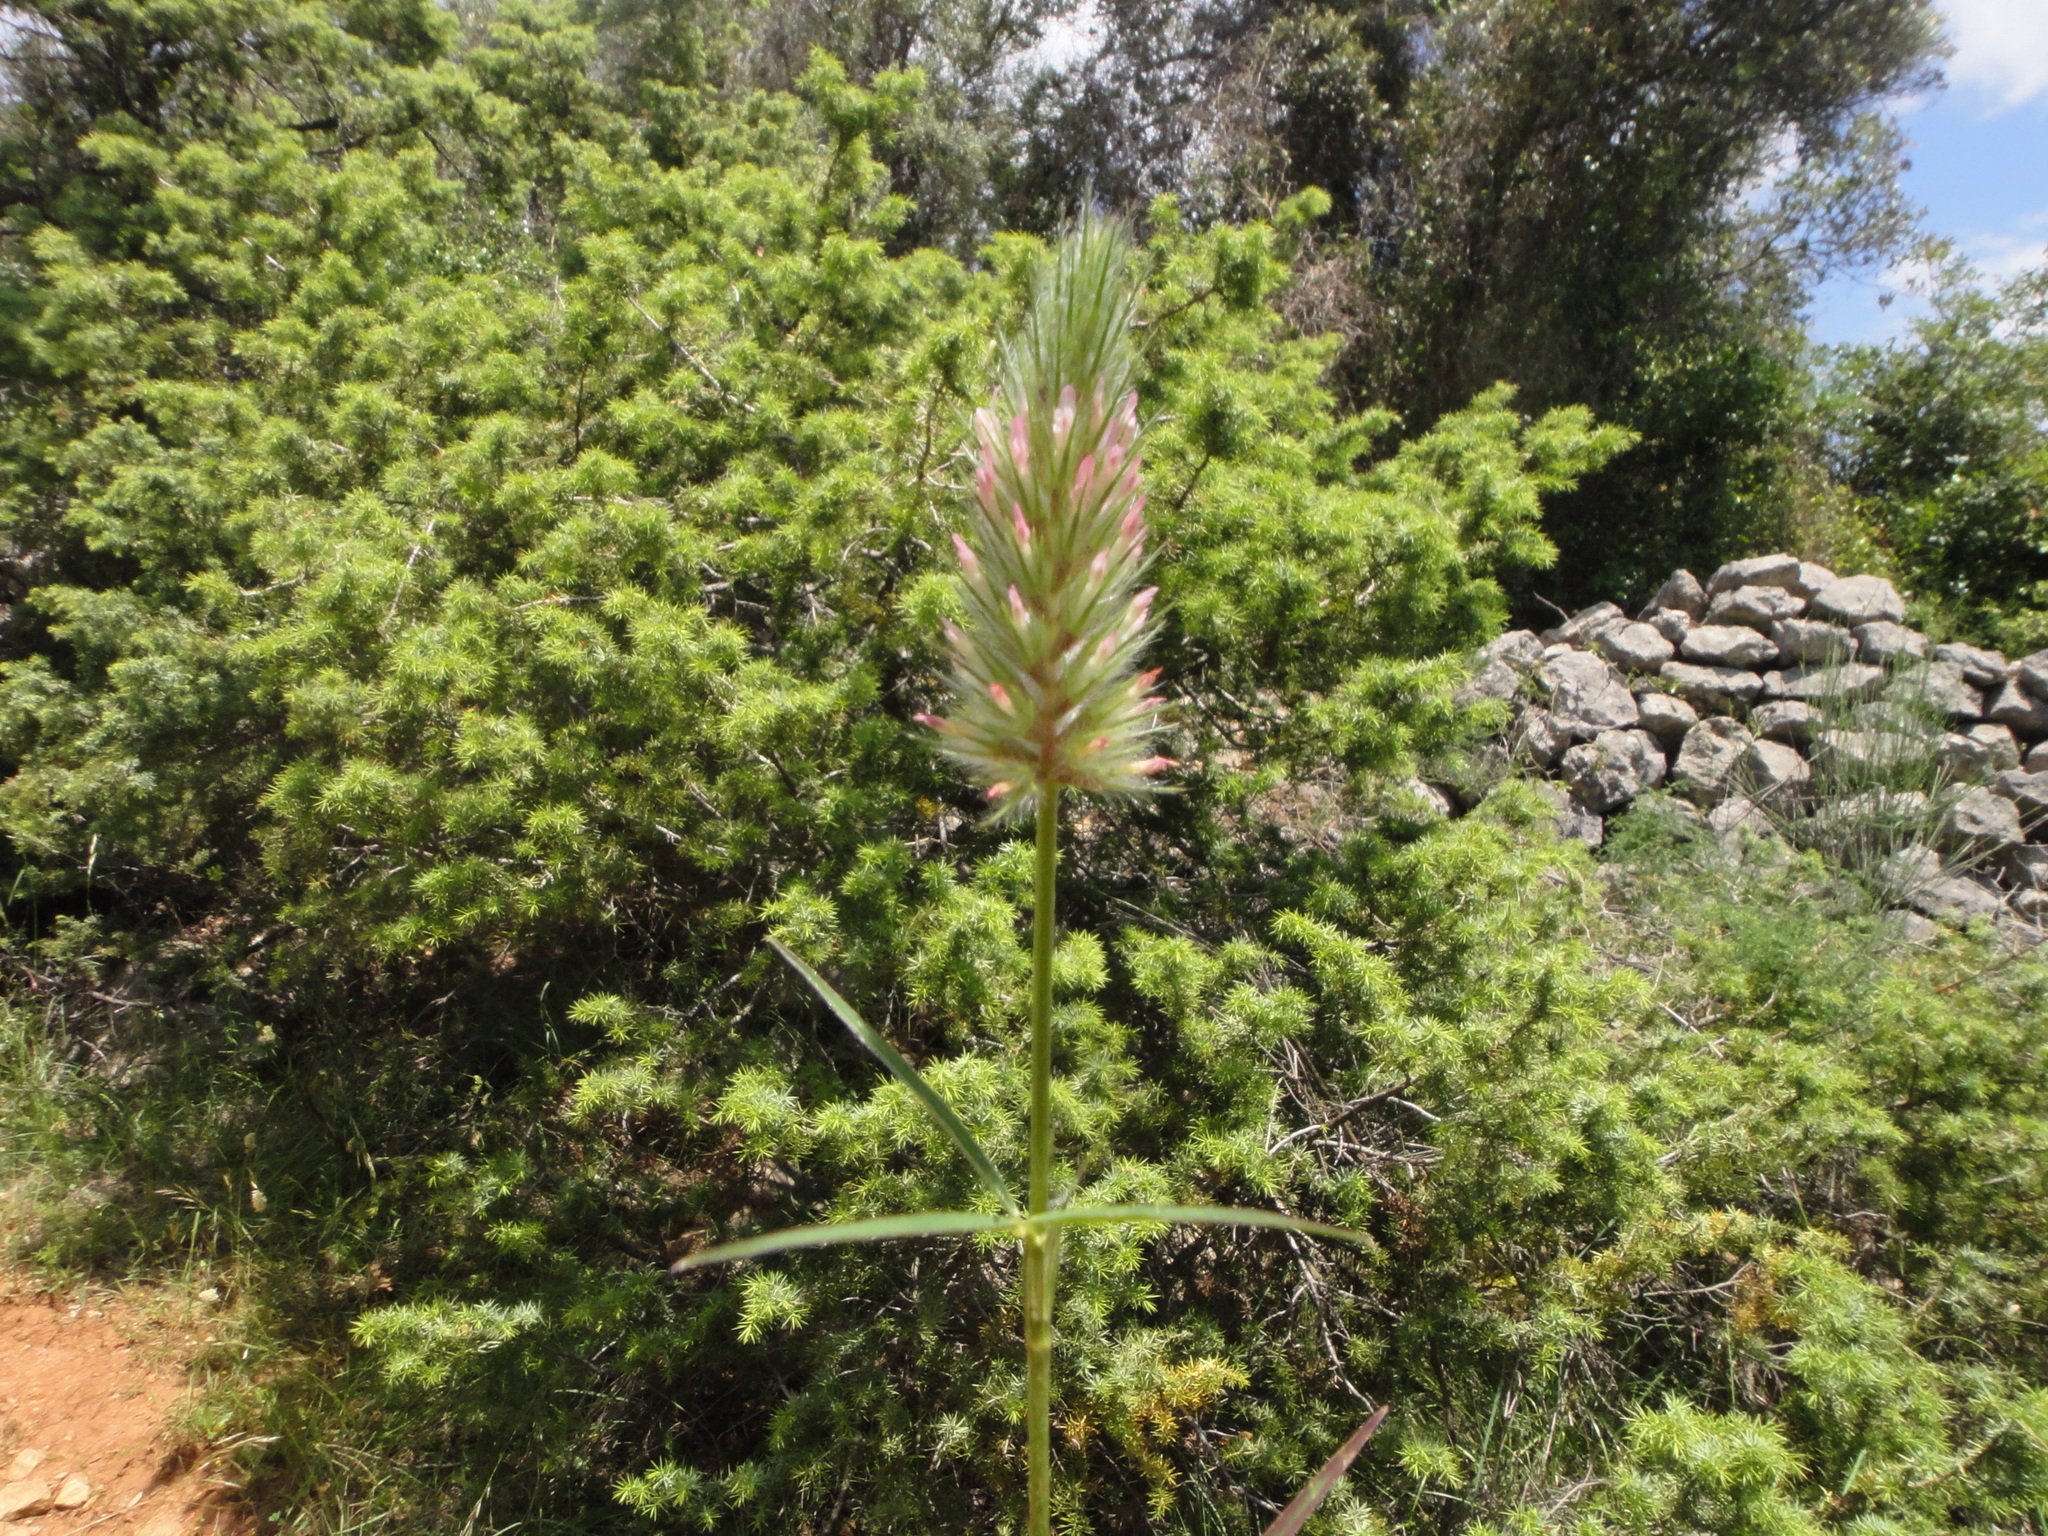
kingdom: Plantae
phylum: Tracheophyta
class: Magnoliopsida
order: Fabales
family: Fabaceae
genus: Trifolium
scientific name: Trifolium angustifolium
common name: Narrow clover
